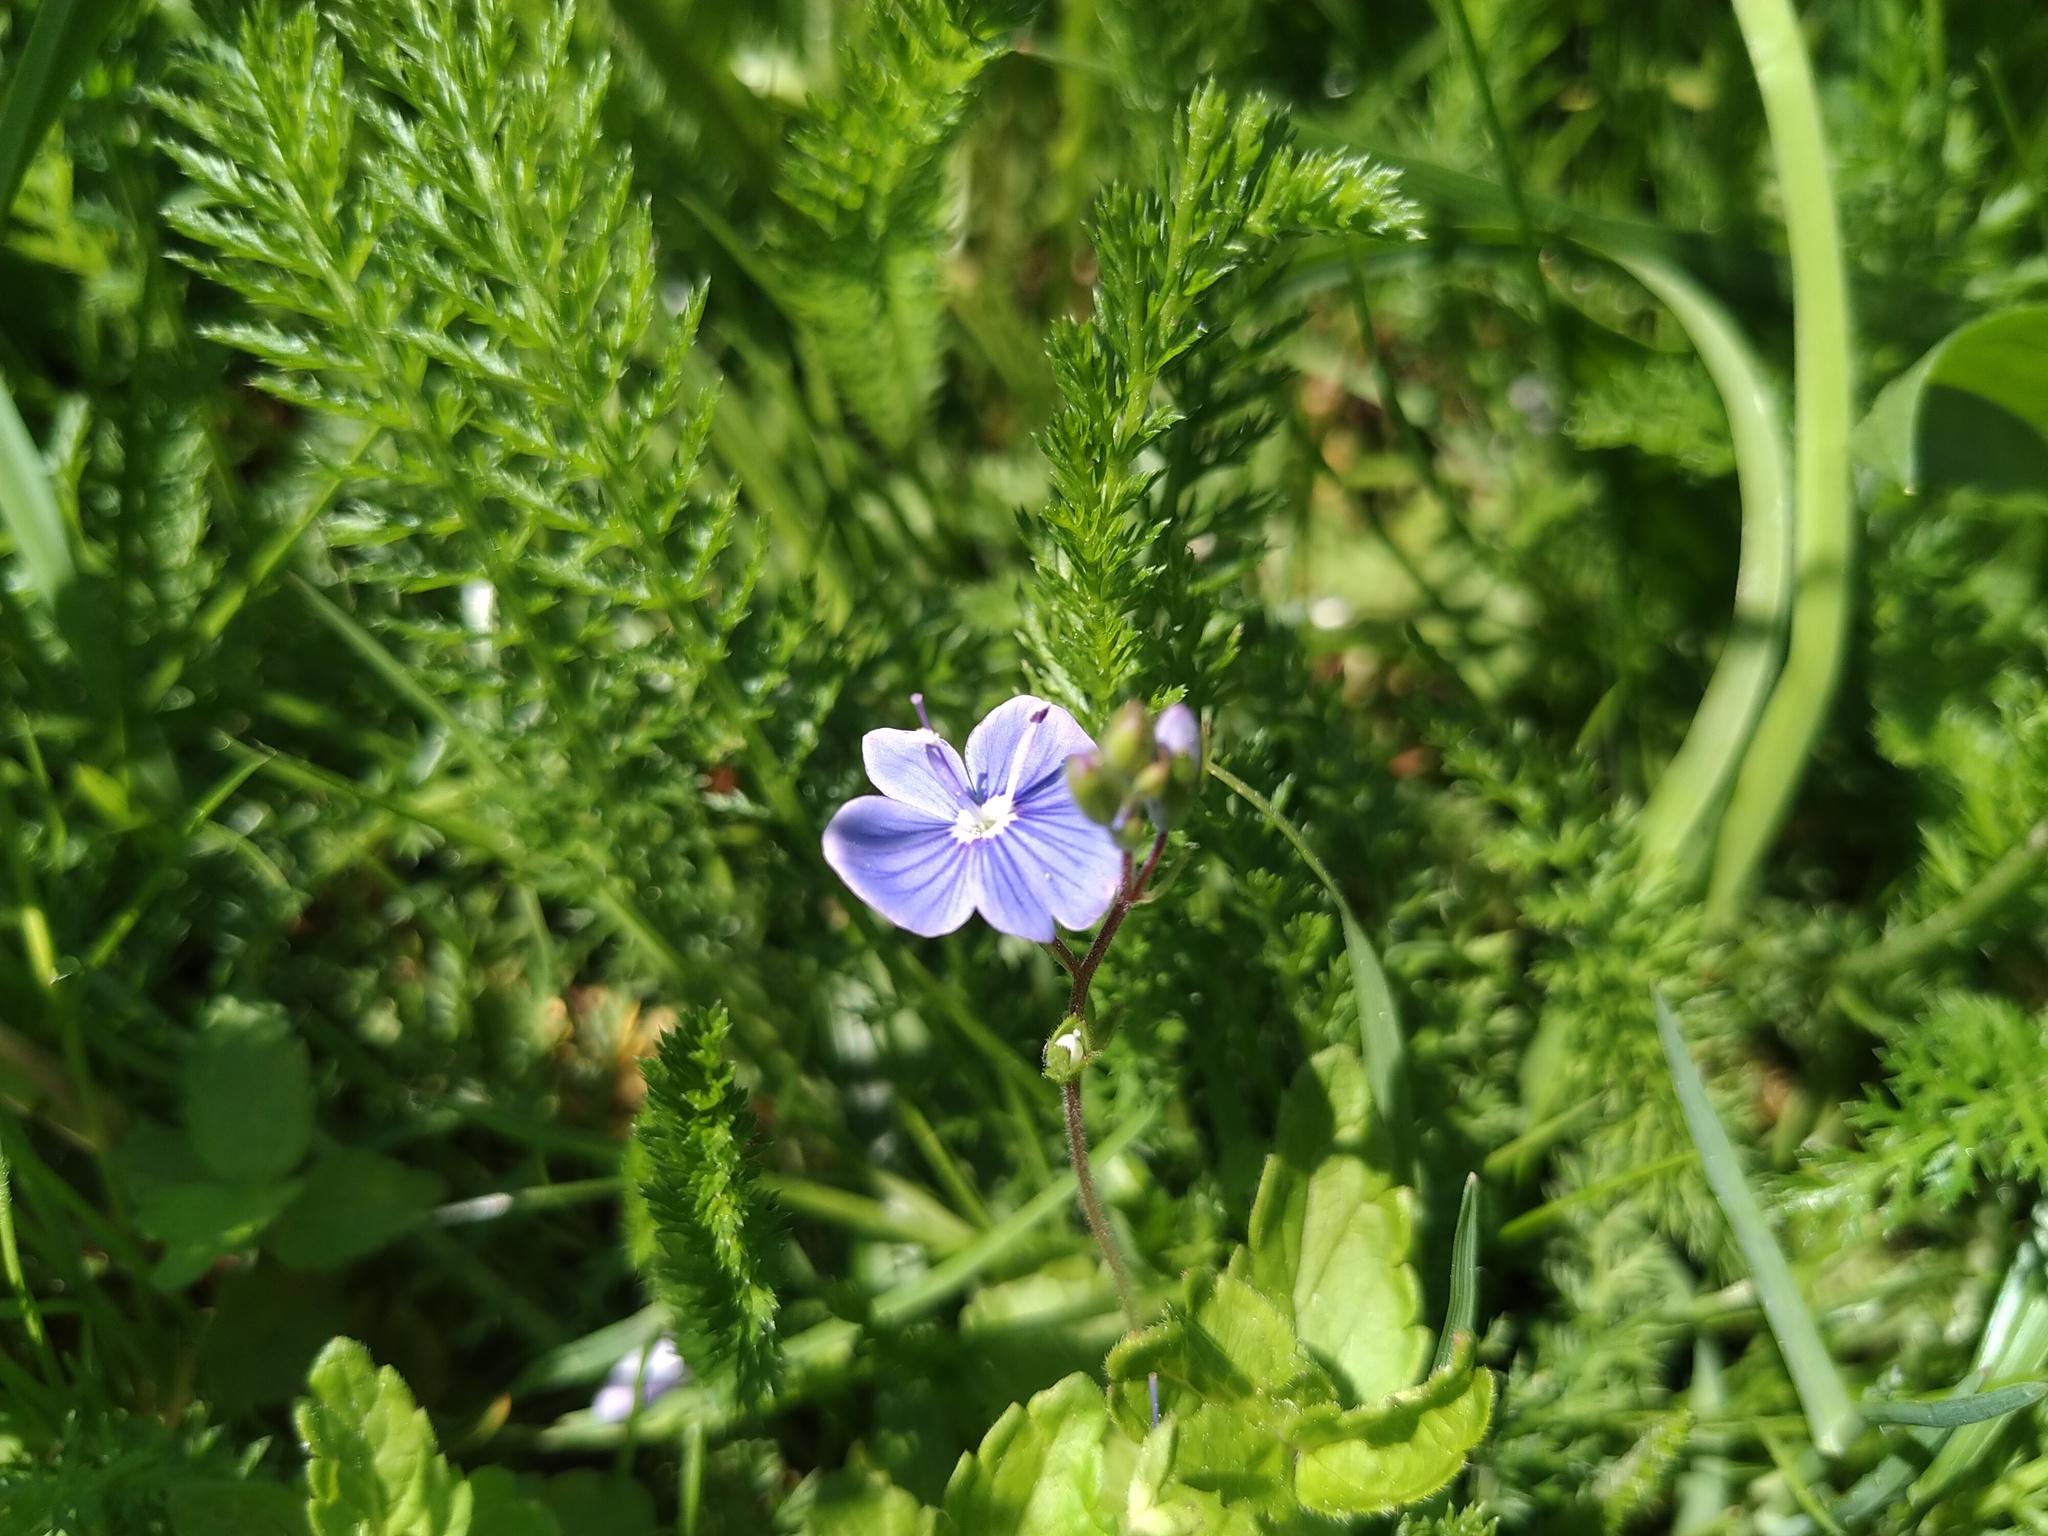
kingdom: Plantae
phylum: Tracheophyta
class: Magnoliopsida
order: Lamiales
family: Plantaginaceae
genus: Veronica
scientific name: Veronica chamaedrys
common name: Germander speedwell
